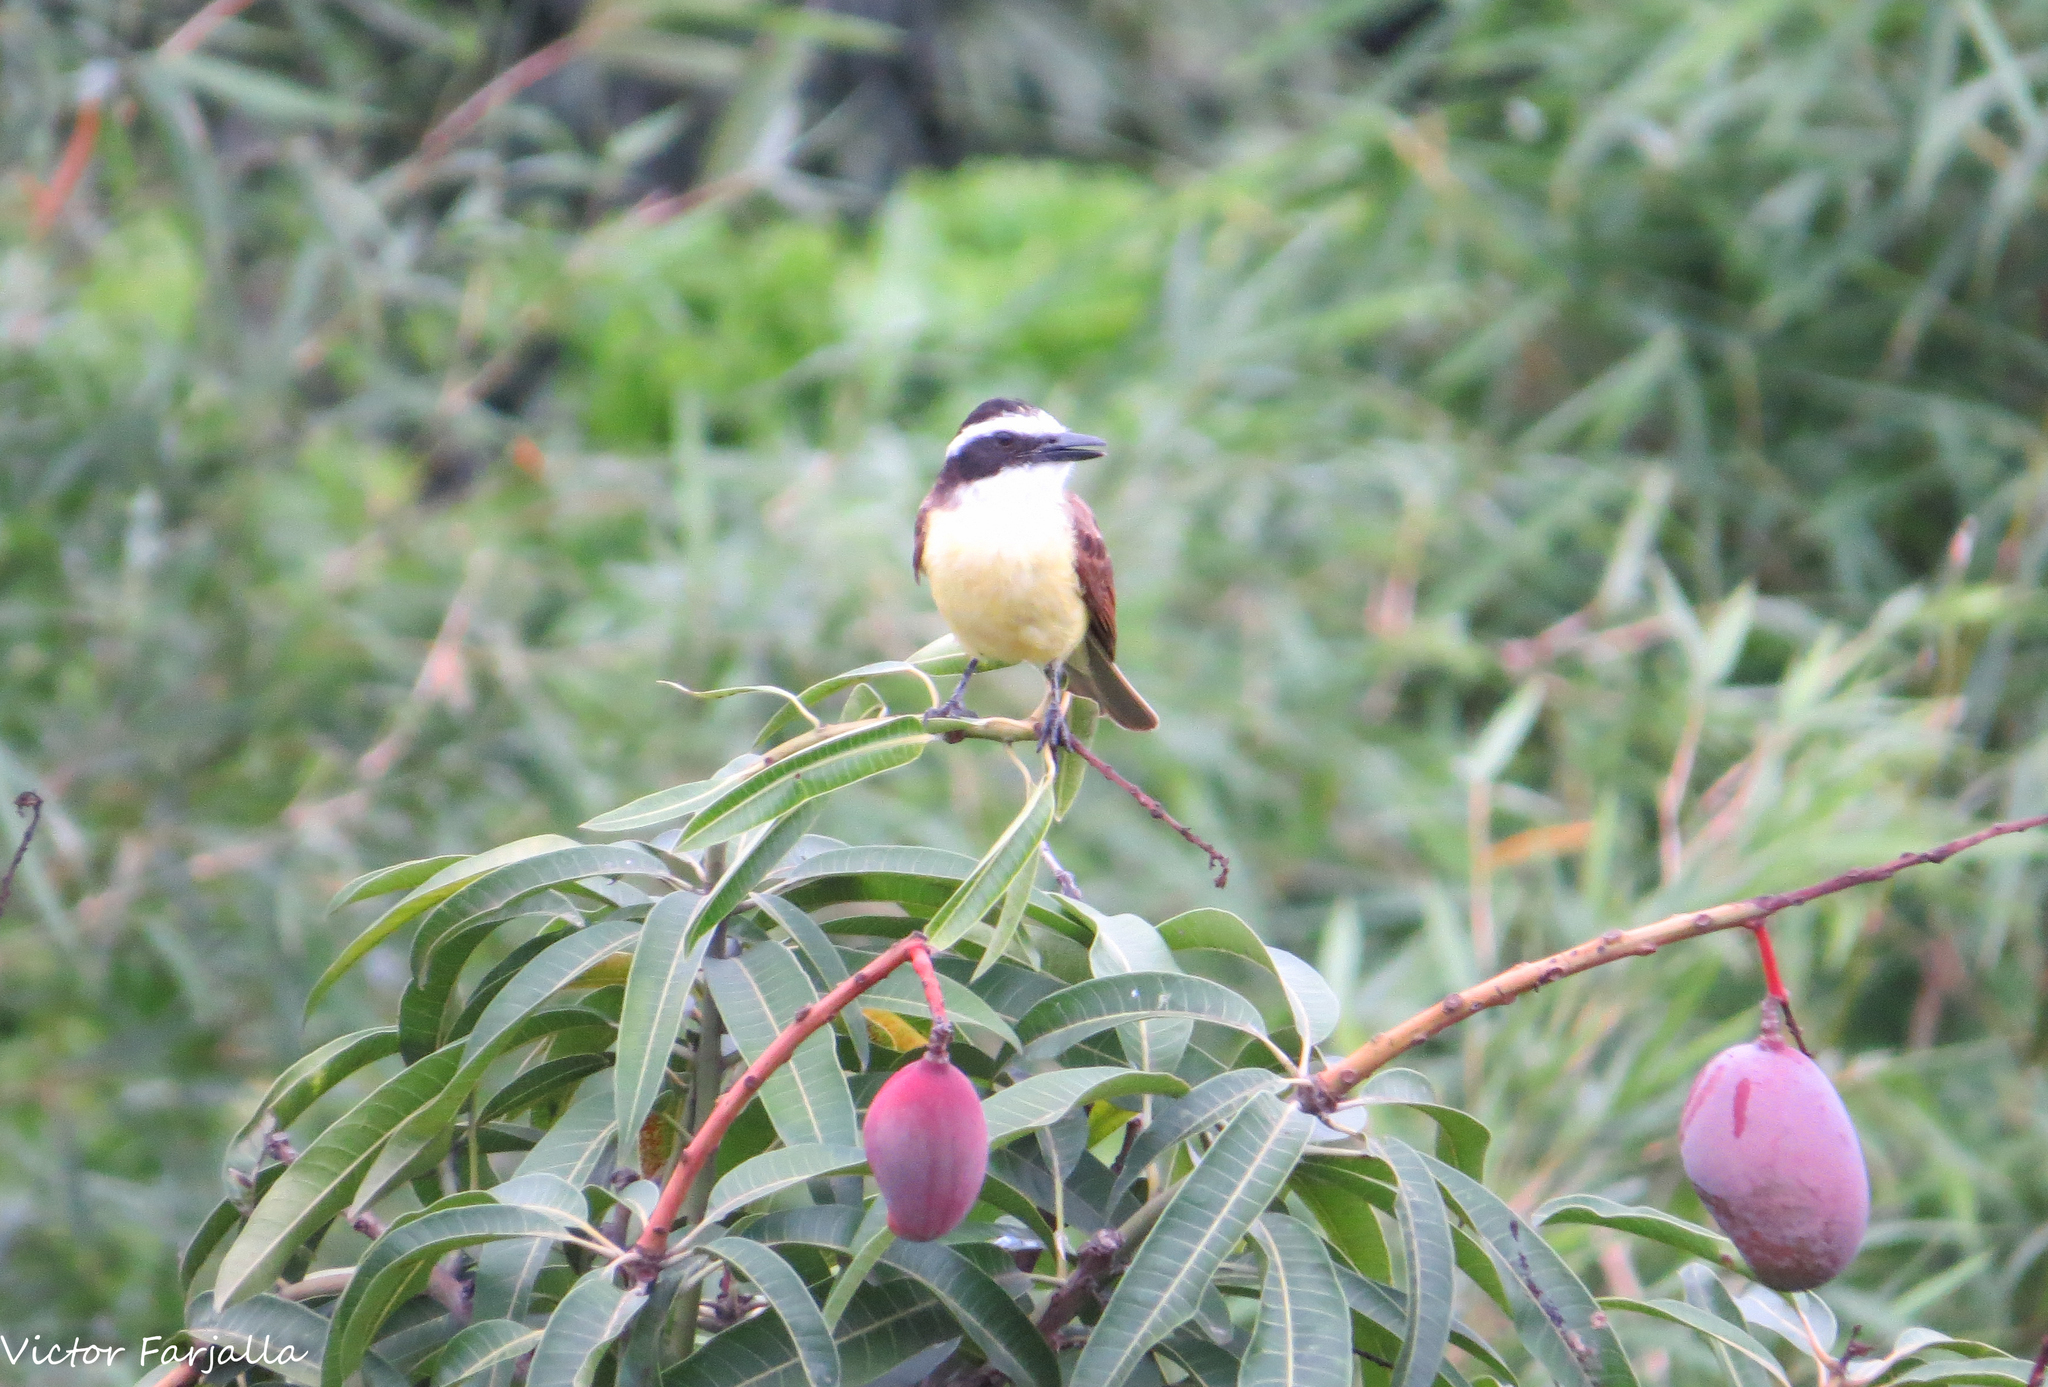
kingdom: Animalia
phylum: Chordata
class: Aves
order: Passeriformes
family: Tyrannidae
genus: Pitangus
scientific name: Pitangus sulphuratus
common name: Great kiskadee
